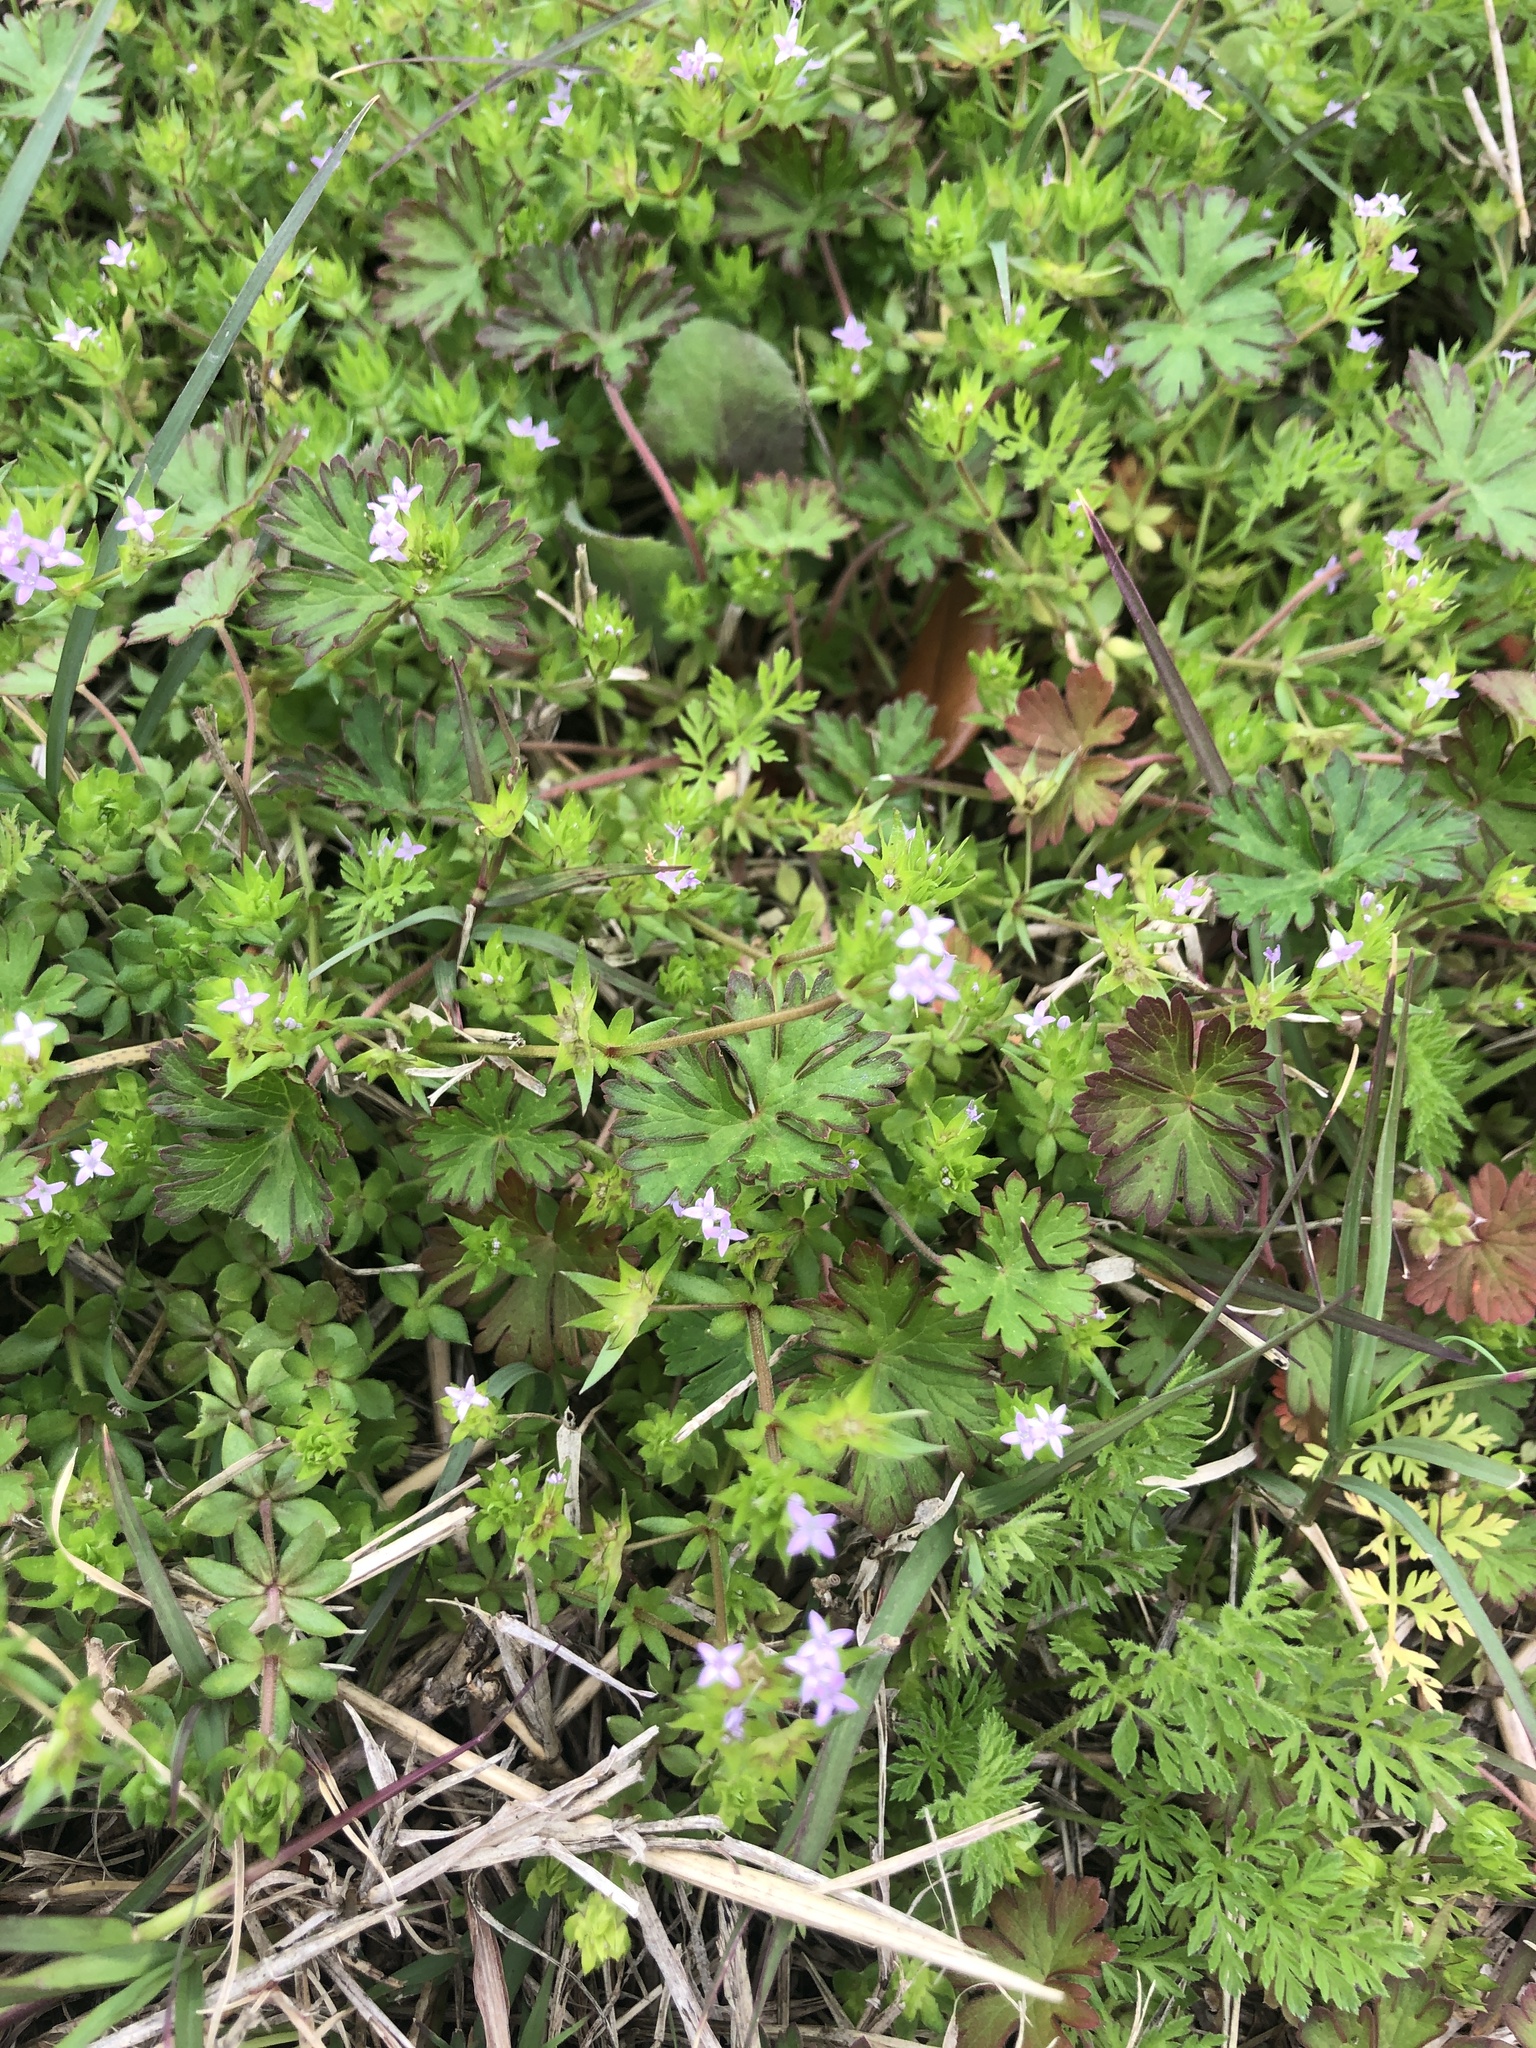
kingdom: Plantae
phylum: Tracheophyta
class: Magnoliopsida
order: Gentianales
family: Rubiaceae
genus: Sherardia
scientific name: Sherardia arvensis
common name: Field madder
